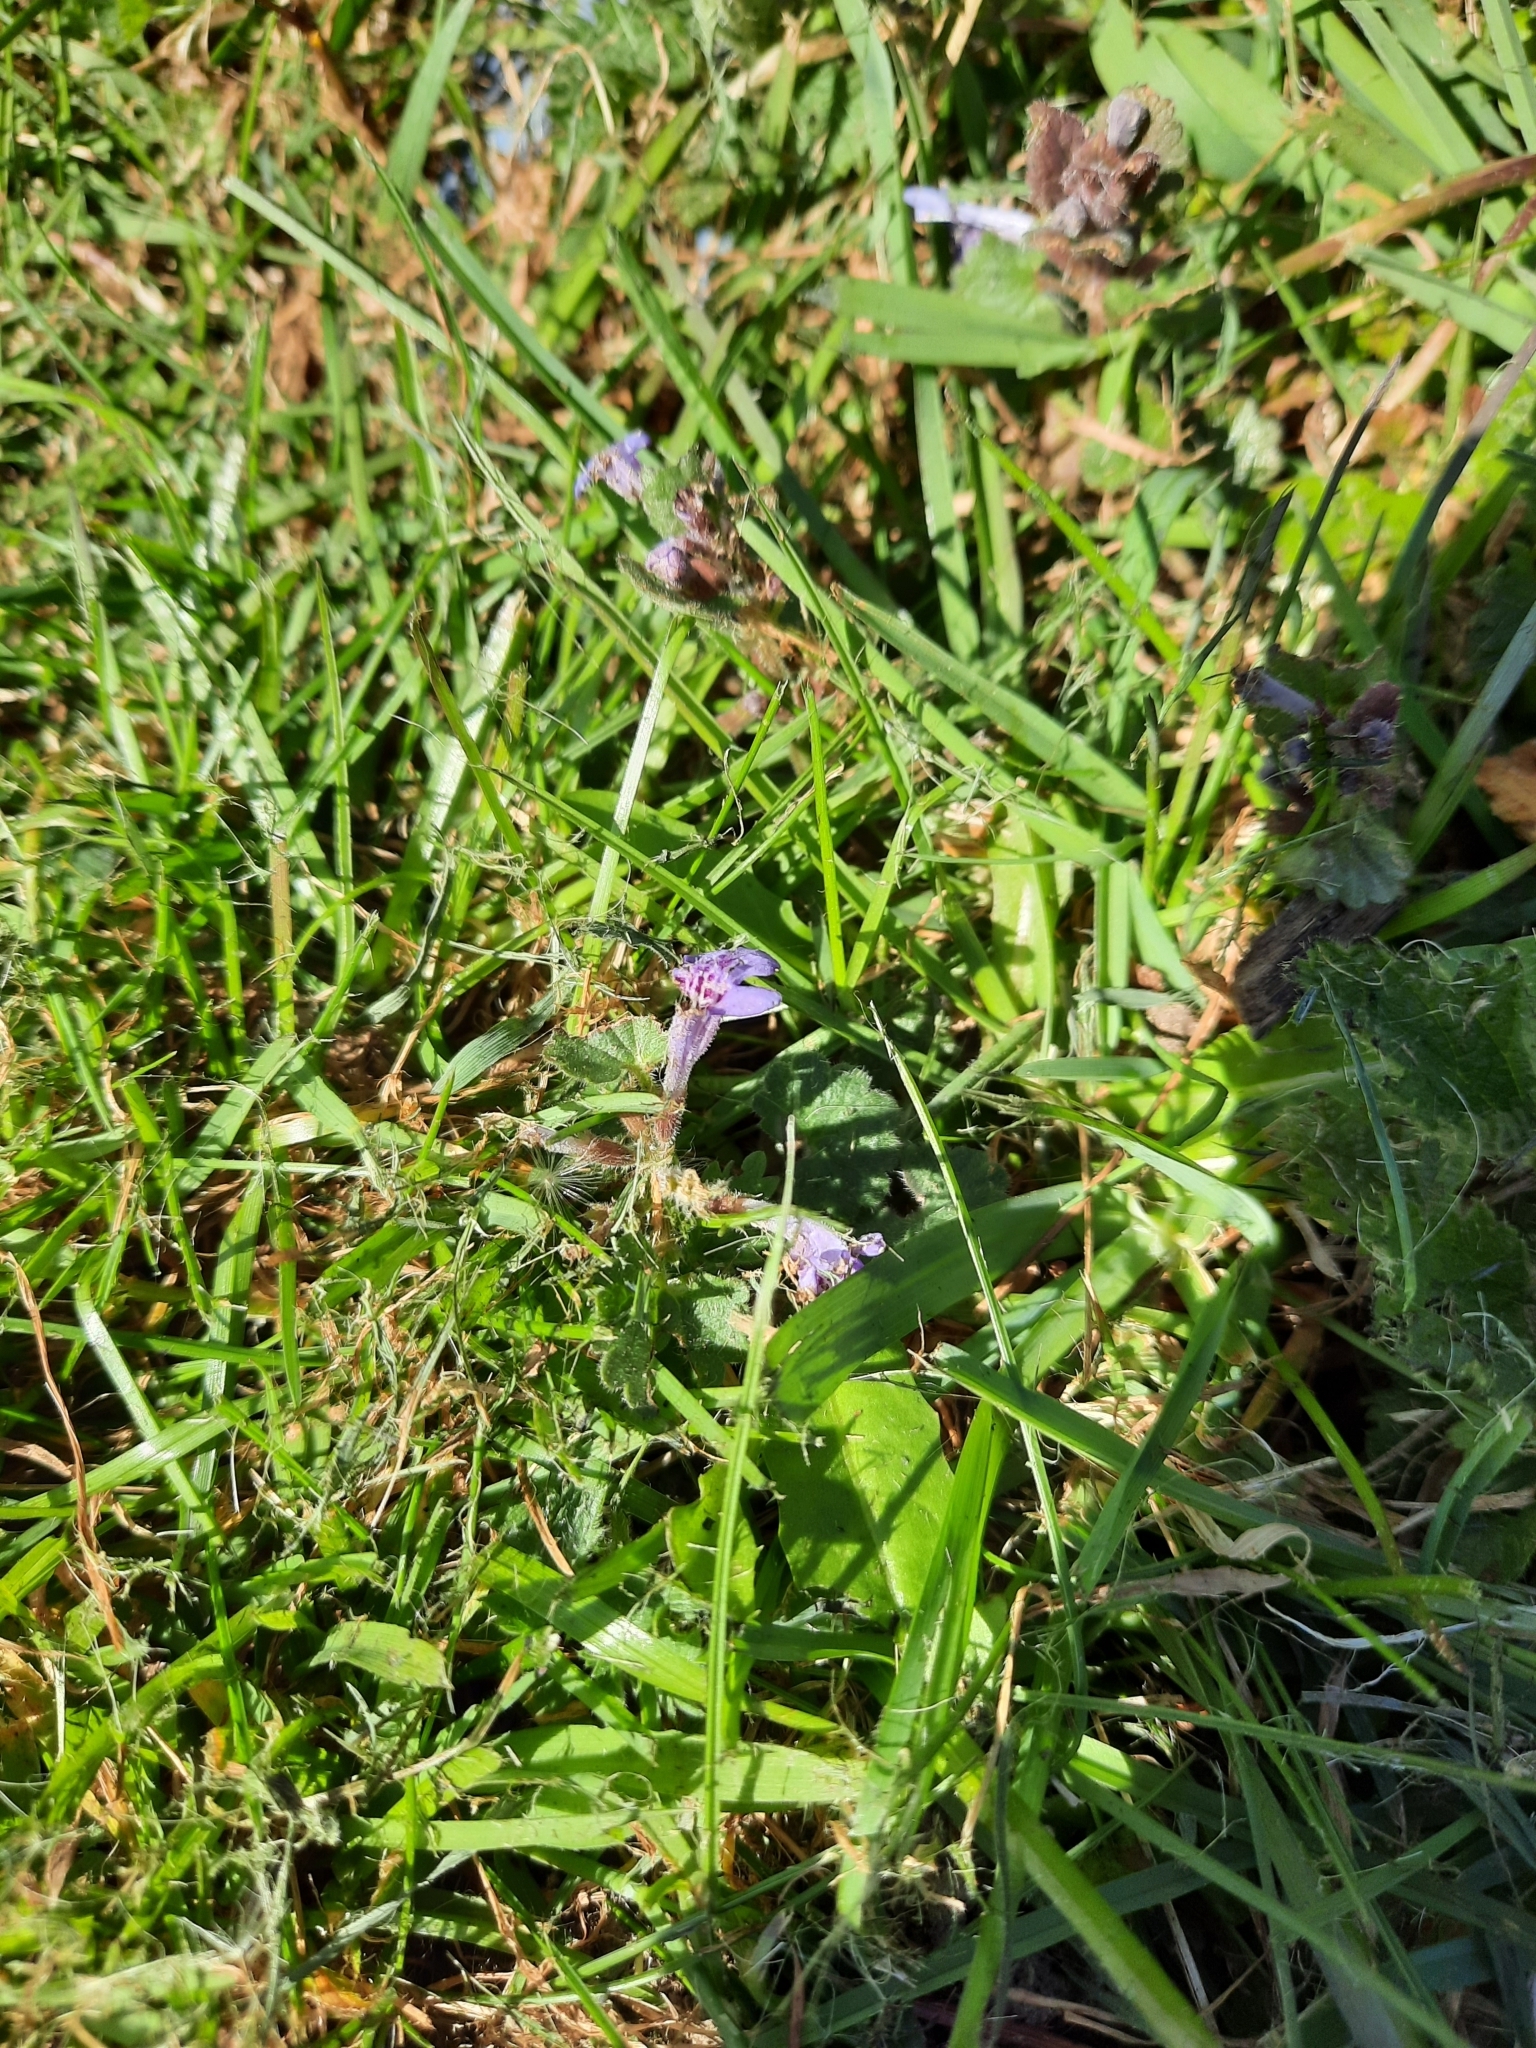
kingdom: Plantae
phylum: Tracheophyta
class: Magnoliopsida
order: Lamiales
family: Lamiaceae
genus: Glechoma
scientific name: Glechoma hederacea
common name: Ground ivy
